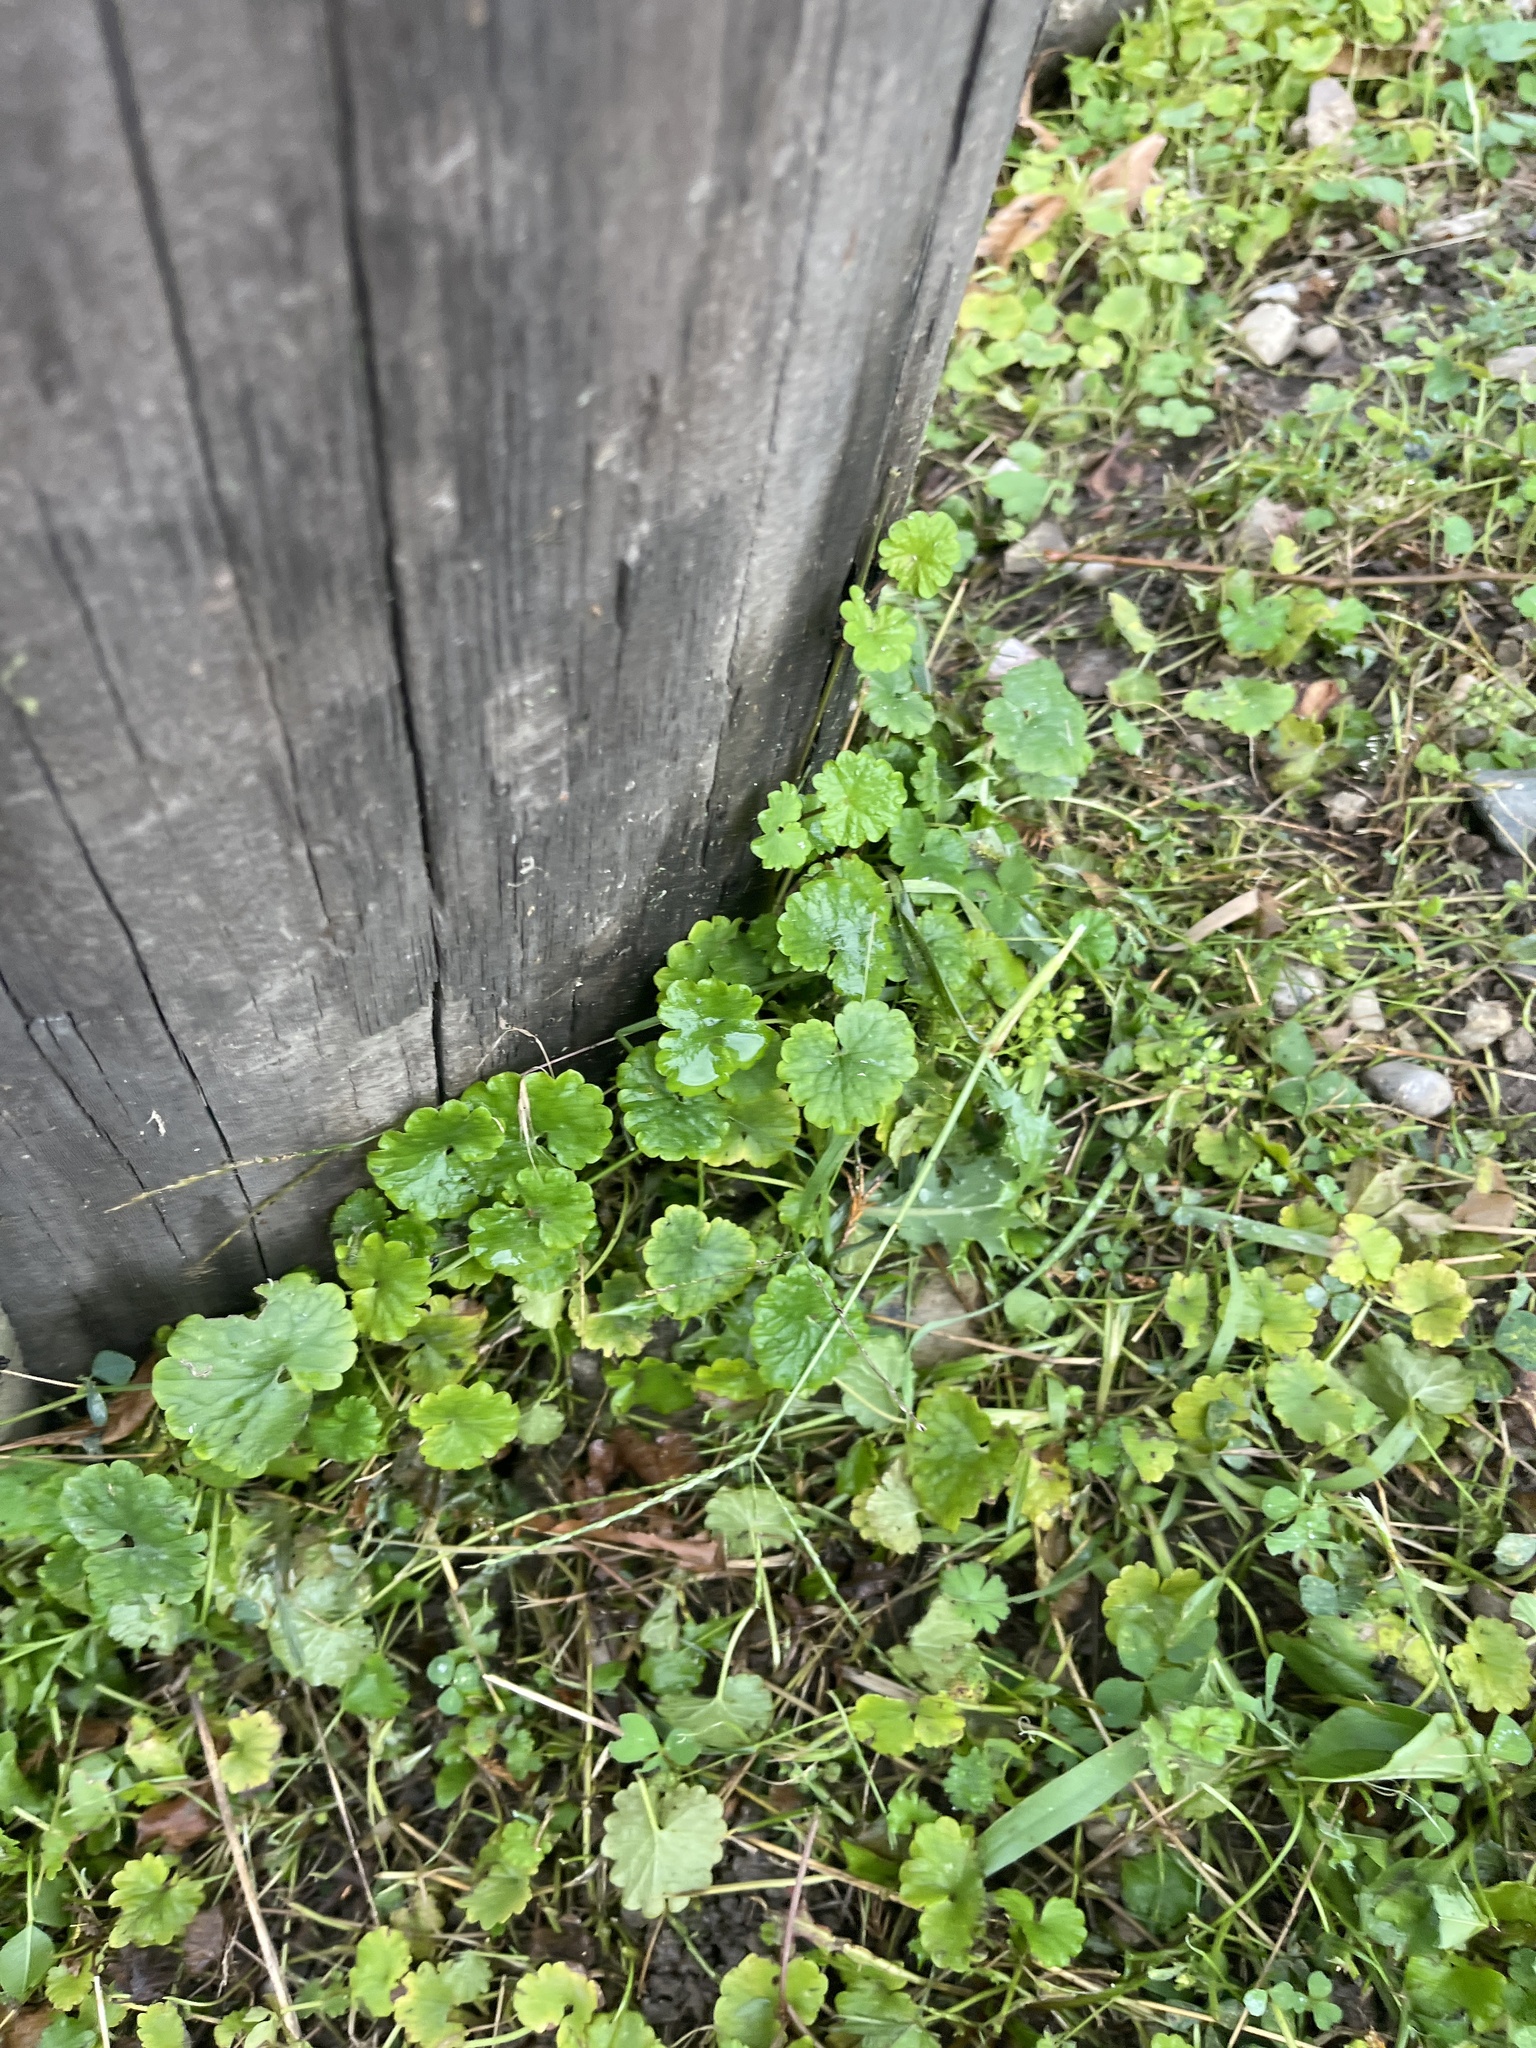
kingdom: Plantae
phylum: Tracheophyta
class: Magnoliopsida
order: Lamiales
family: Lamiaceae
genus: Glechoma
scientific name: Glechoma hederacea
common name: Ground ivy
